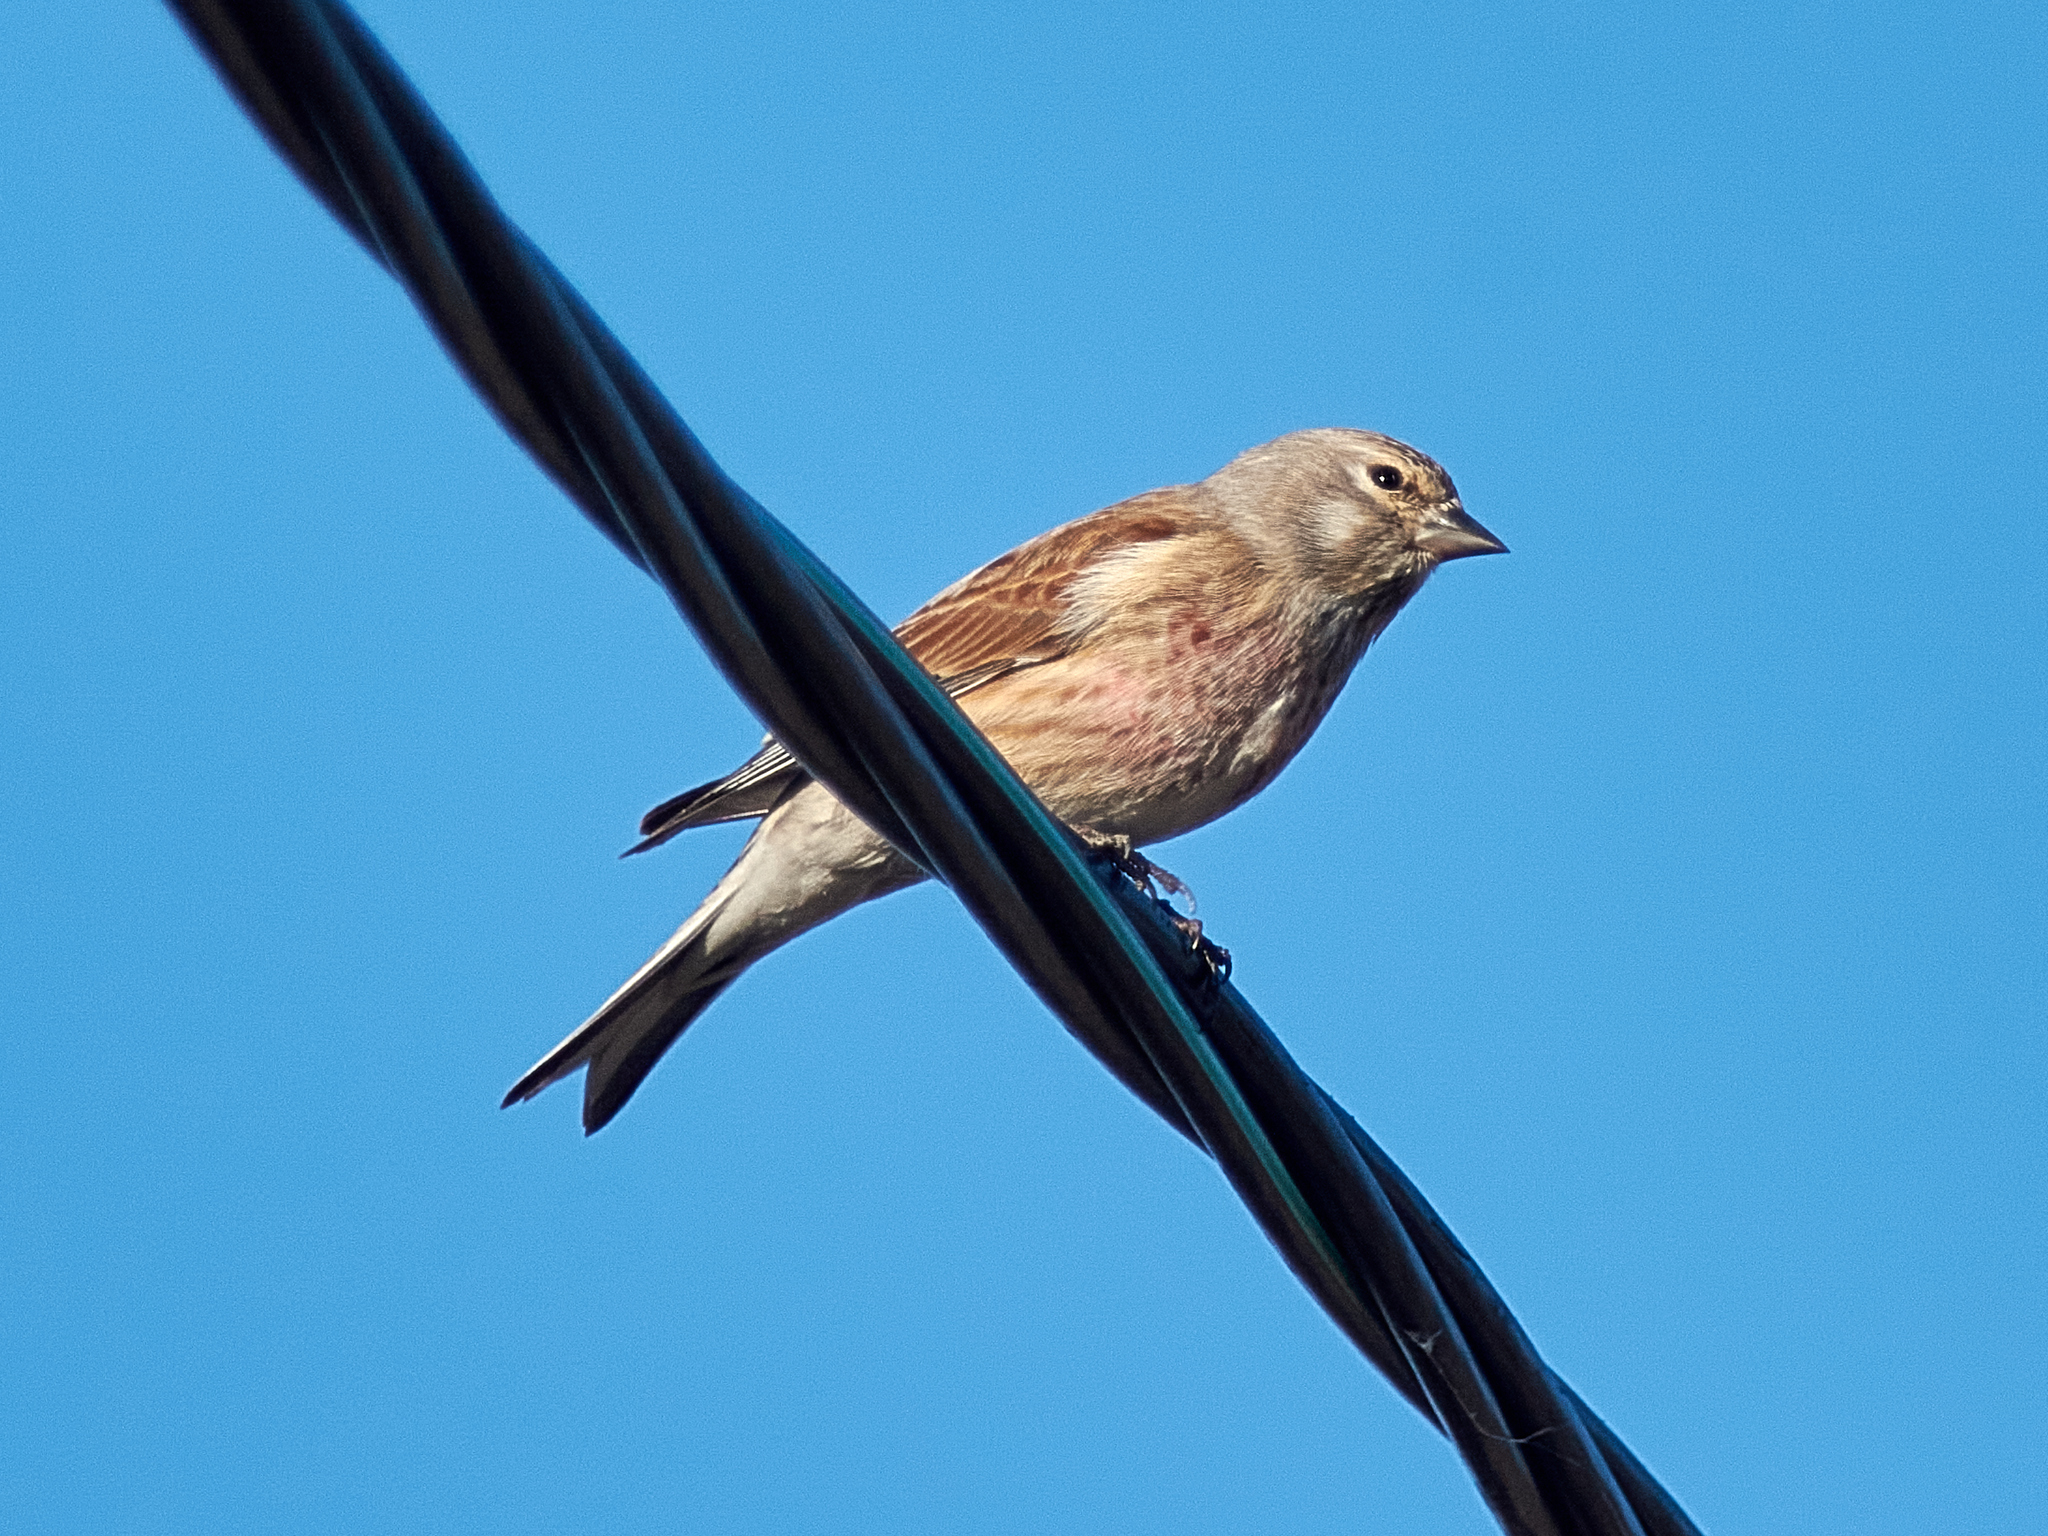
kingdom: Animalia
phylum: Chordata
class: Aves
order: Passeriformes
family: Fringillidae
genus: Linaria
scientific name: Linaria cannabina
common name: Common linnet
